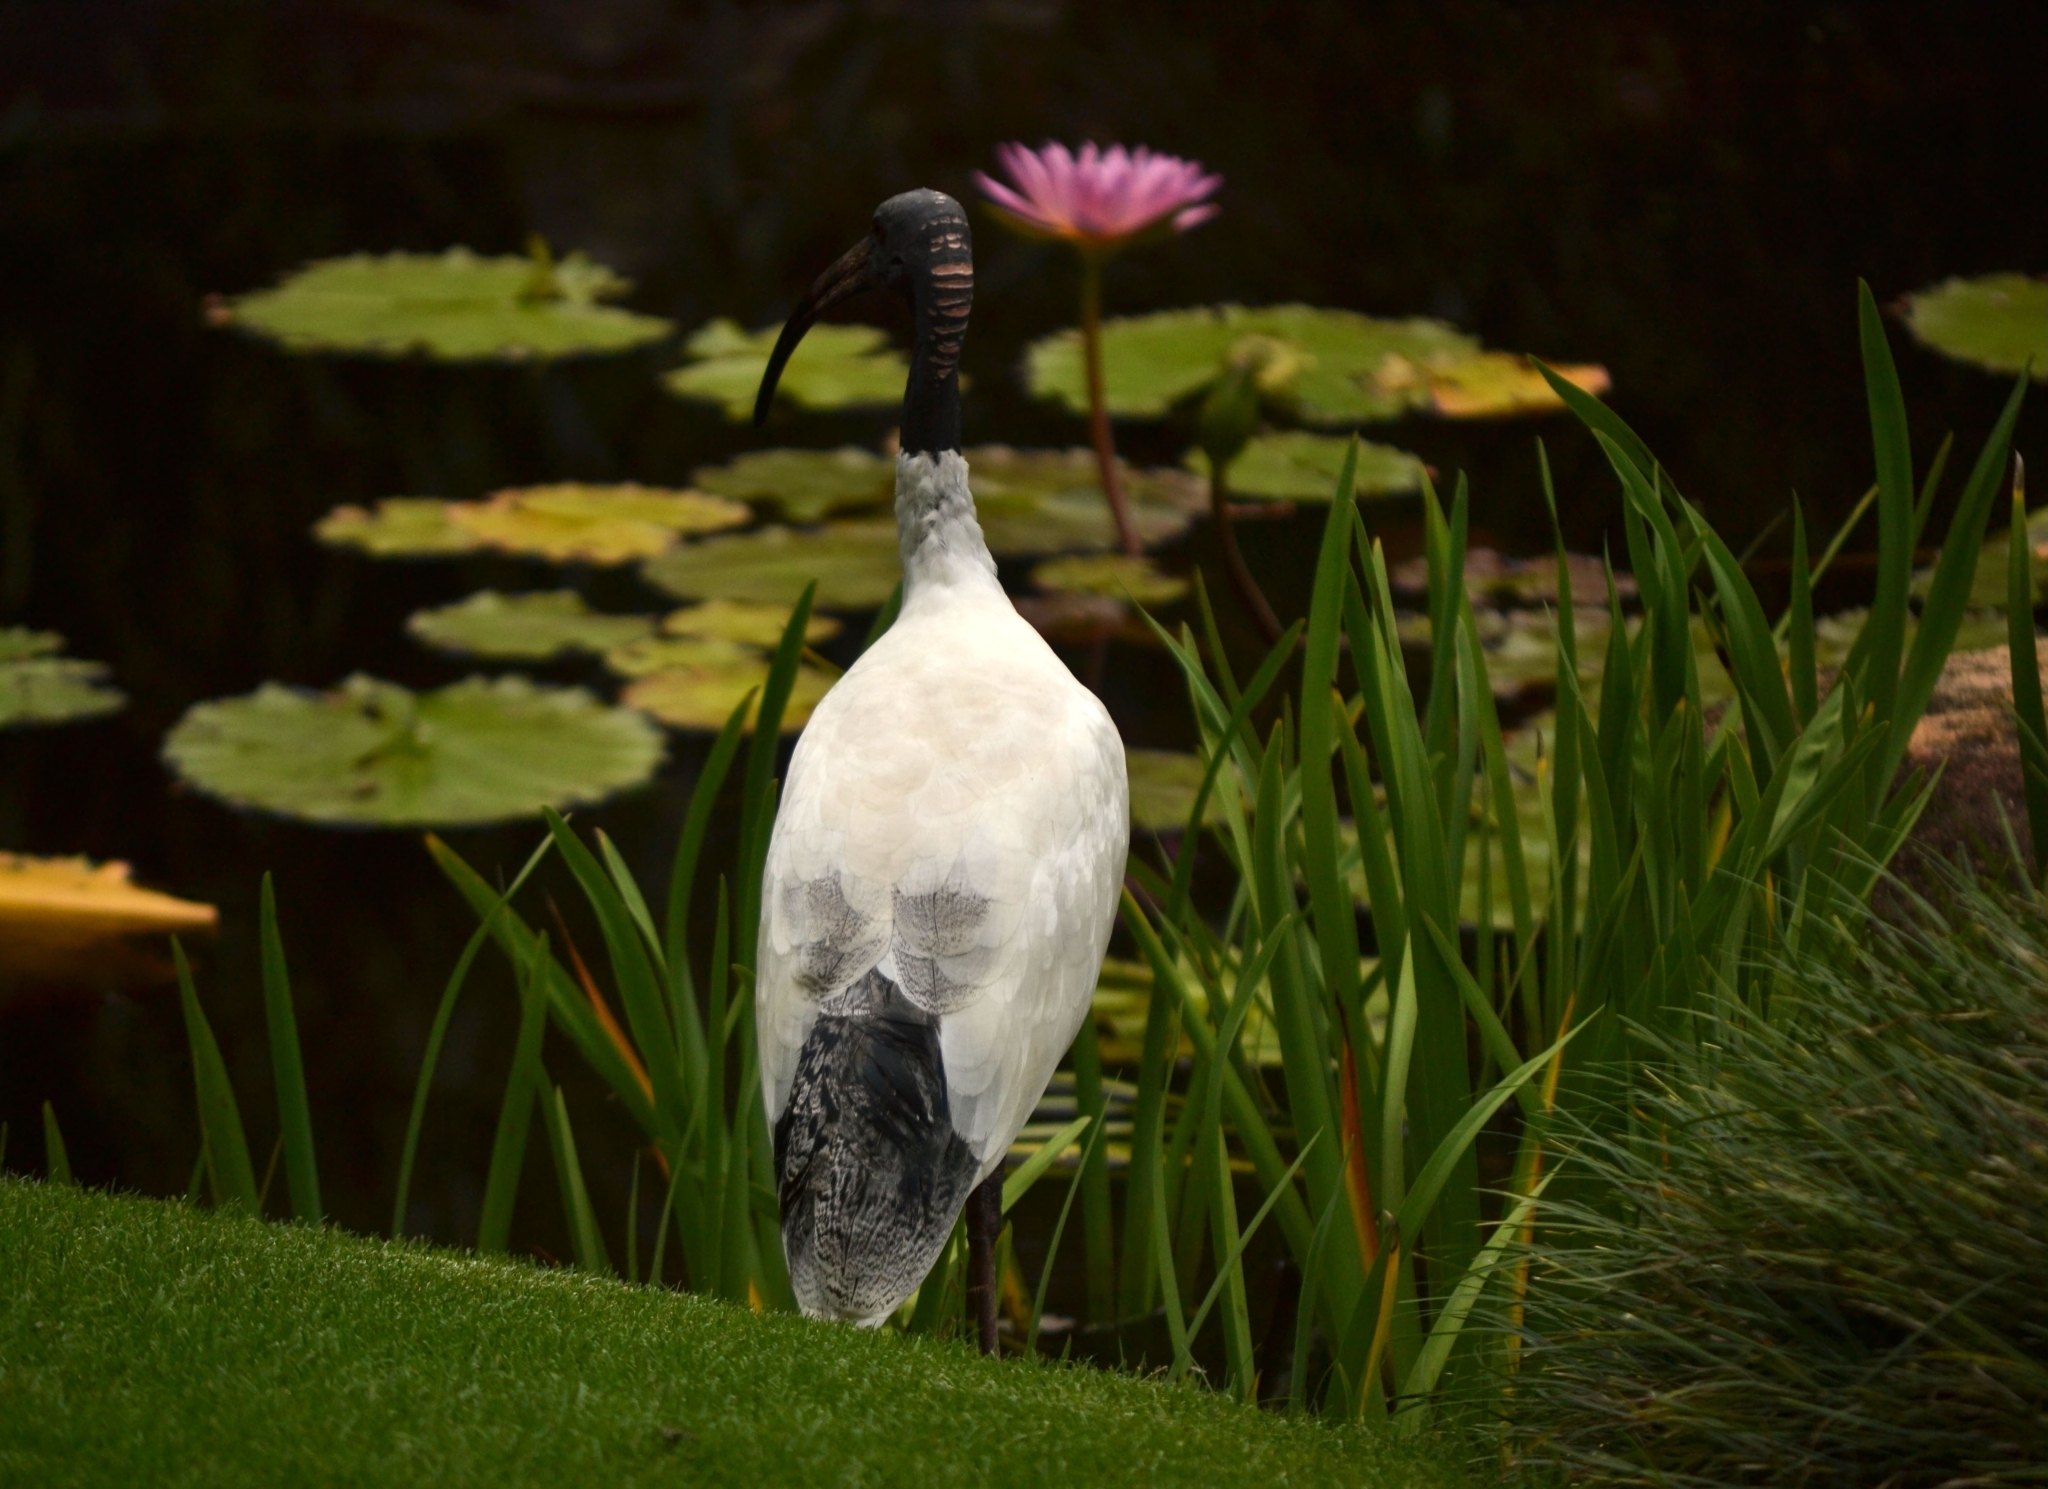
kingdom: Animalia
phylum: Chordata
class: Aves
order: Pelecaniformes
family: Threskiornithidae
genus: Threskiornis
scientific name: Threskiornis molucca
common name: Australian white ibis
